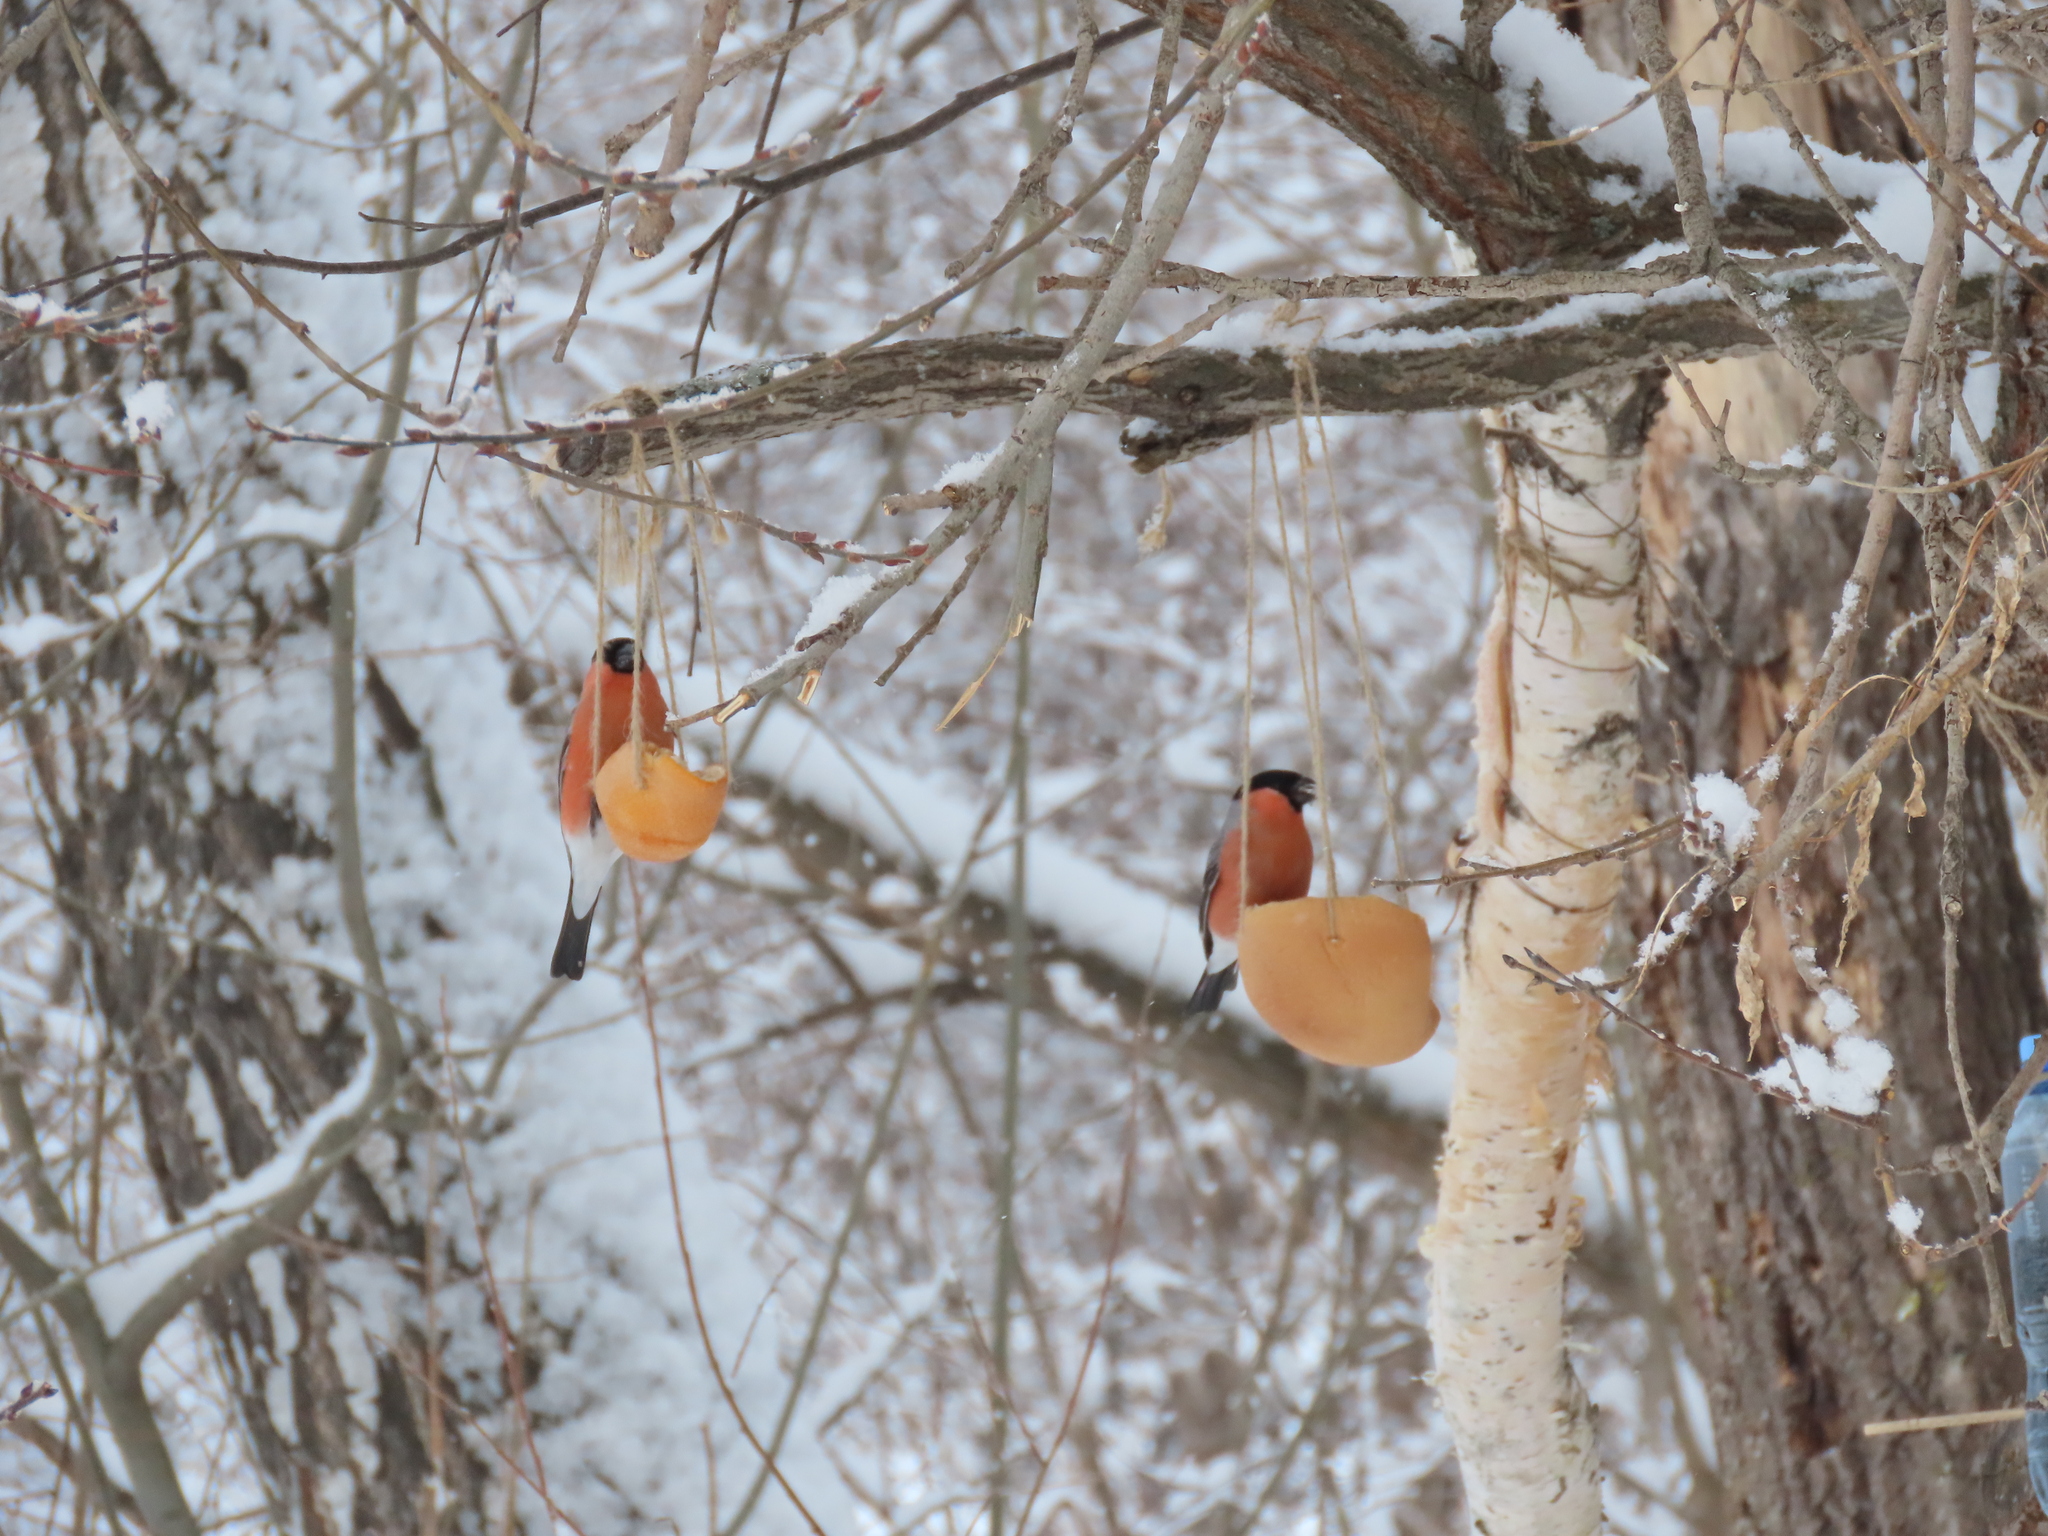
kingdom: Animalia
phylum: Chordata
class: Aves
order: Passeriformes
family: Fringillidae
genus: Pyrrhula
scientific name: Pyrrhula pyrrhula
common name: Eurasian bullfinch
